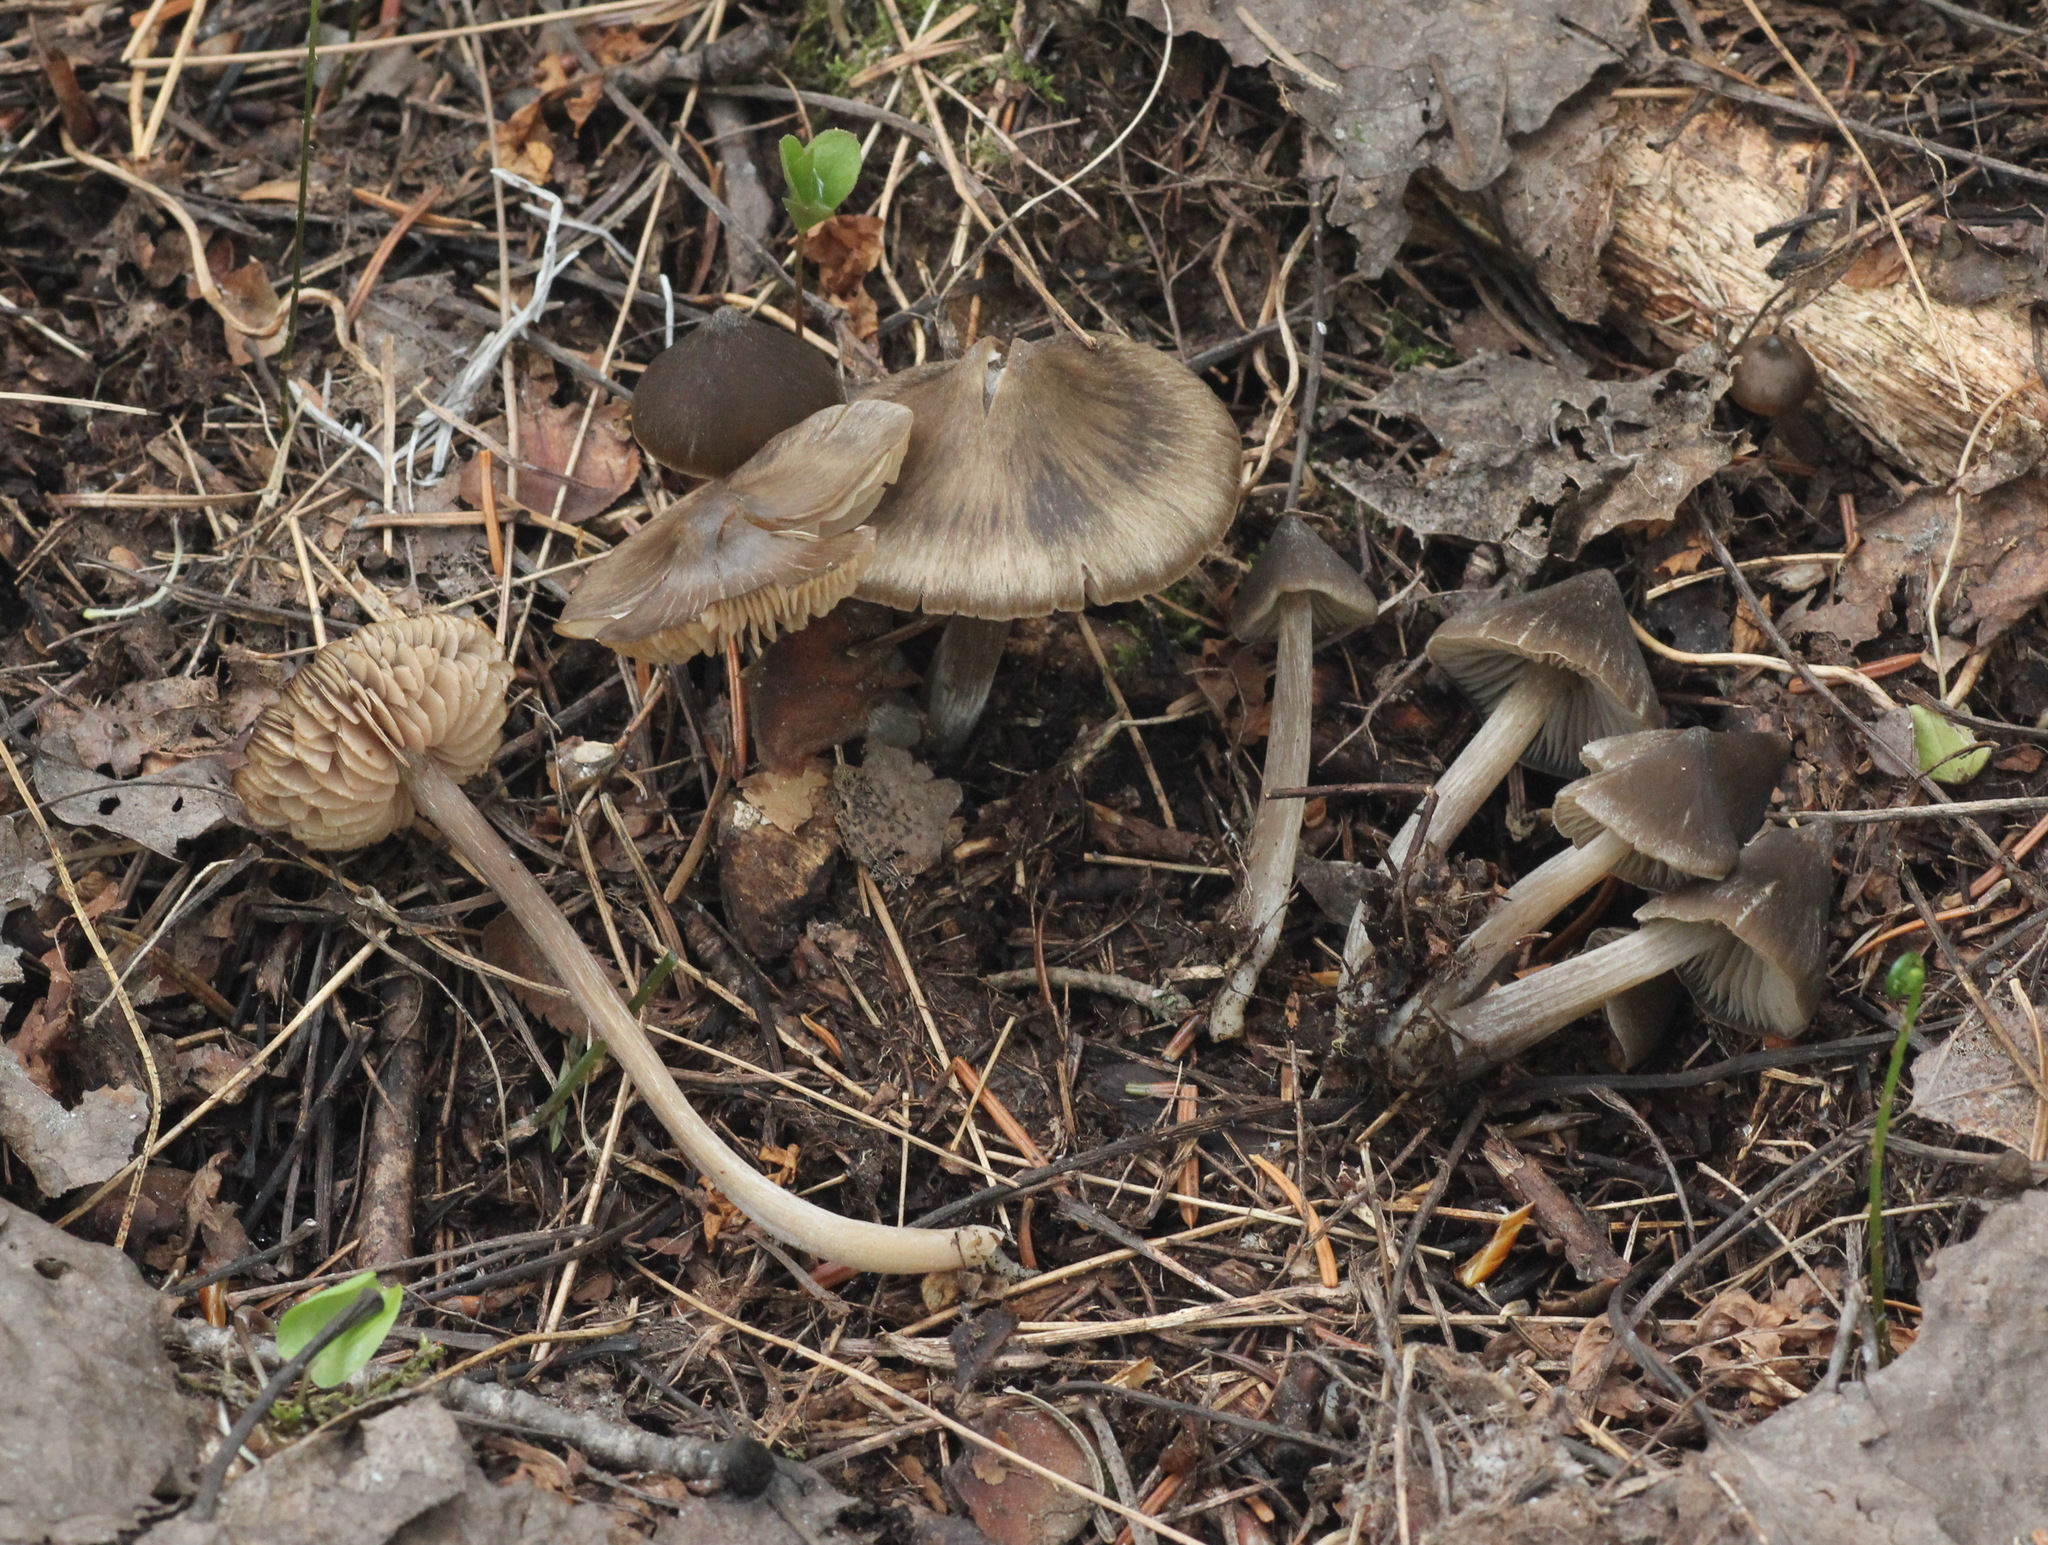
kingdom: Fungi
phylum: Basidiomycota
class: Agaricomycetes
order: Agaricales
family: Entolomataceae
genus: Entoloma
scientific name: Entoloma vernum
